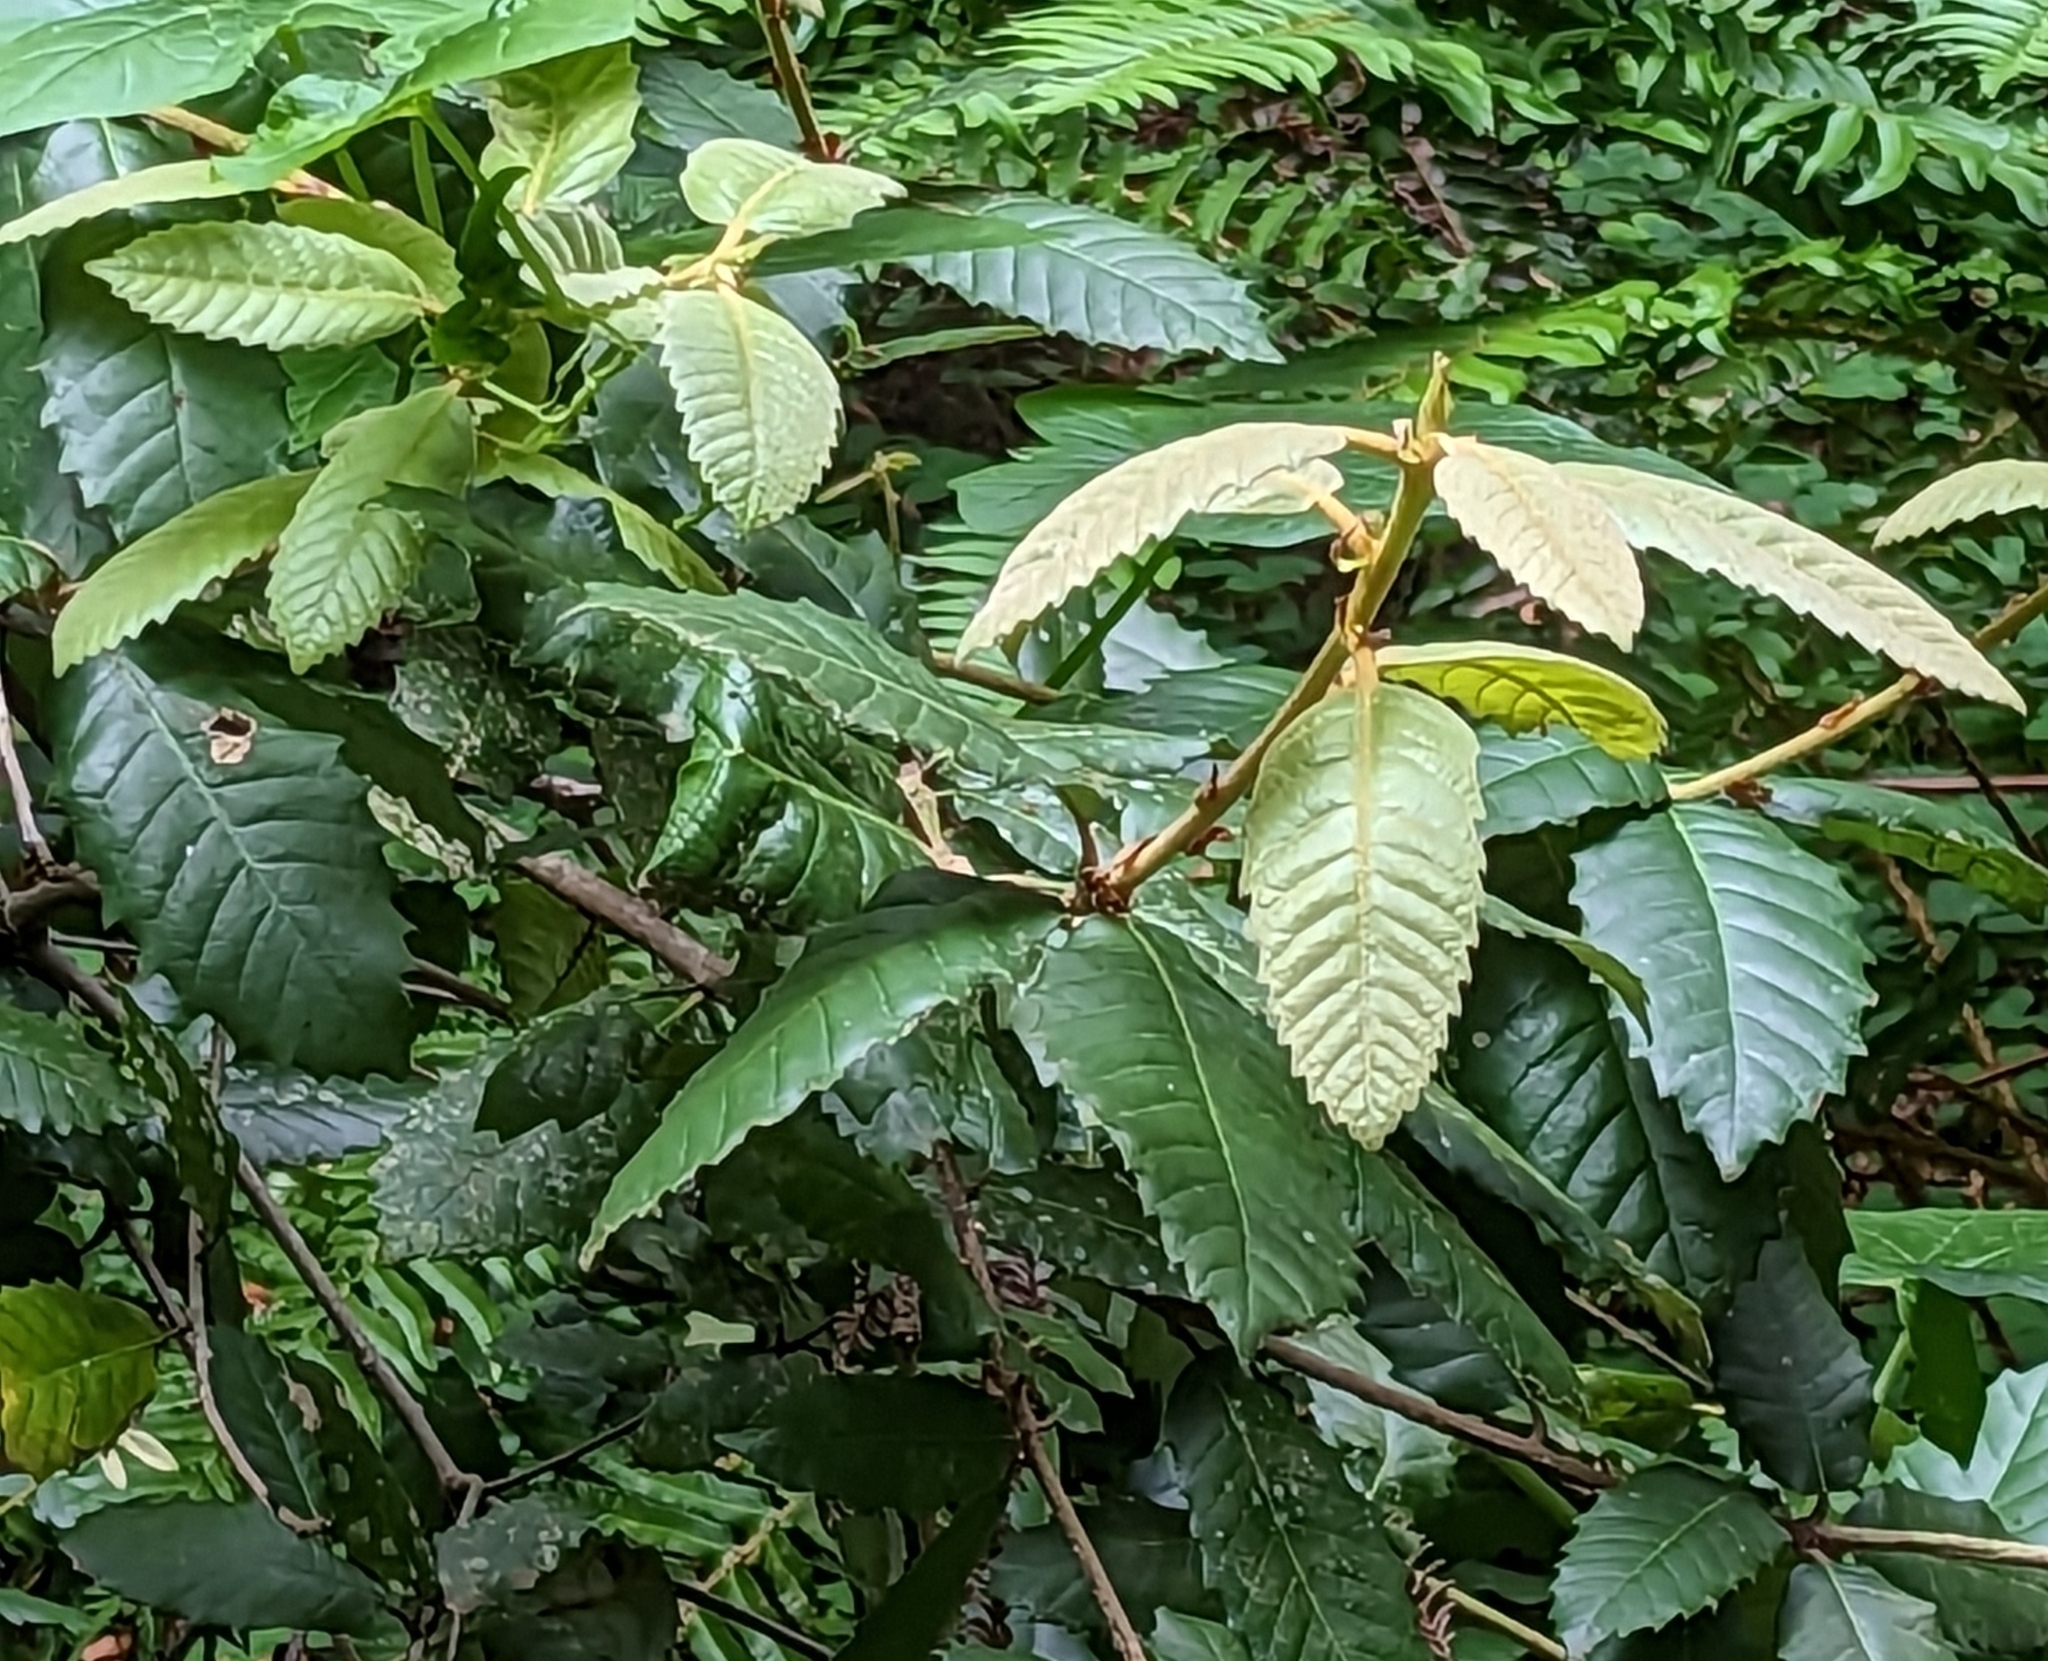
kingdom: Plantae
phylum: Tracheophyta
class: Magnoliopsida
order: Fagales
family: Fagaceae
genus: Notholithocarpus
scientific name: Notholithocarpus densiflorus
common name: Tan bark oak
